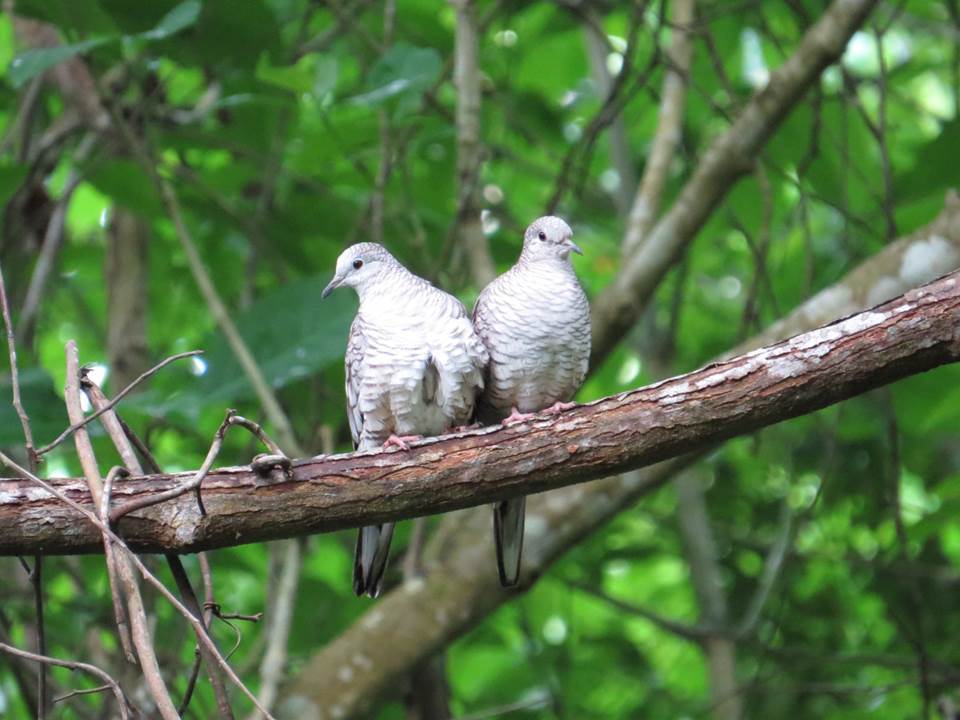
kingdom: Animalia
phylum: Chordata
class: Aves
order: Columbiformes
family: Columbidae
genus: Columbina
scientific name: Columbina inca
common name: Inca dove
